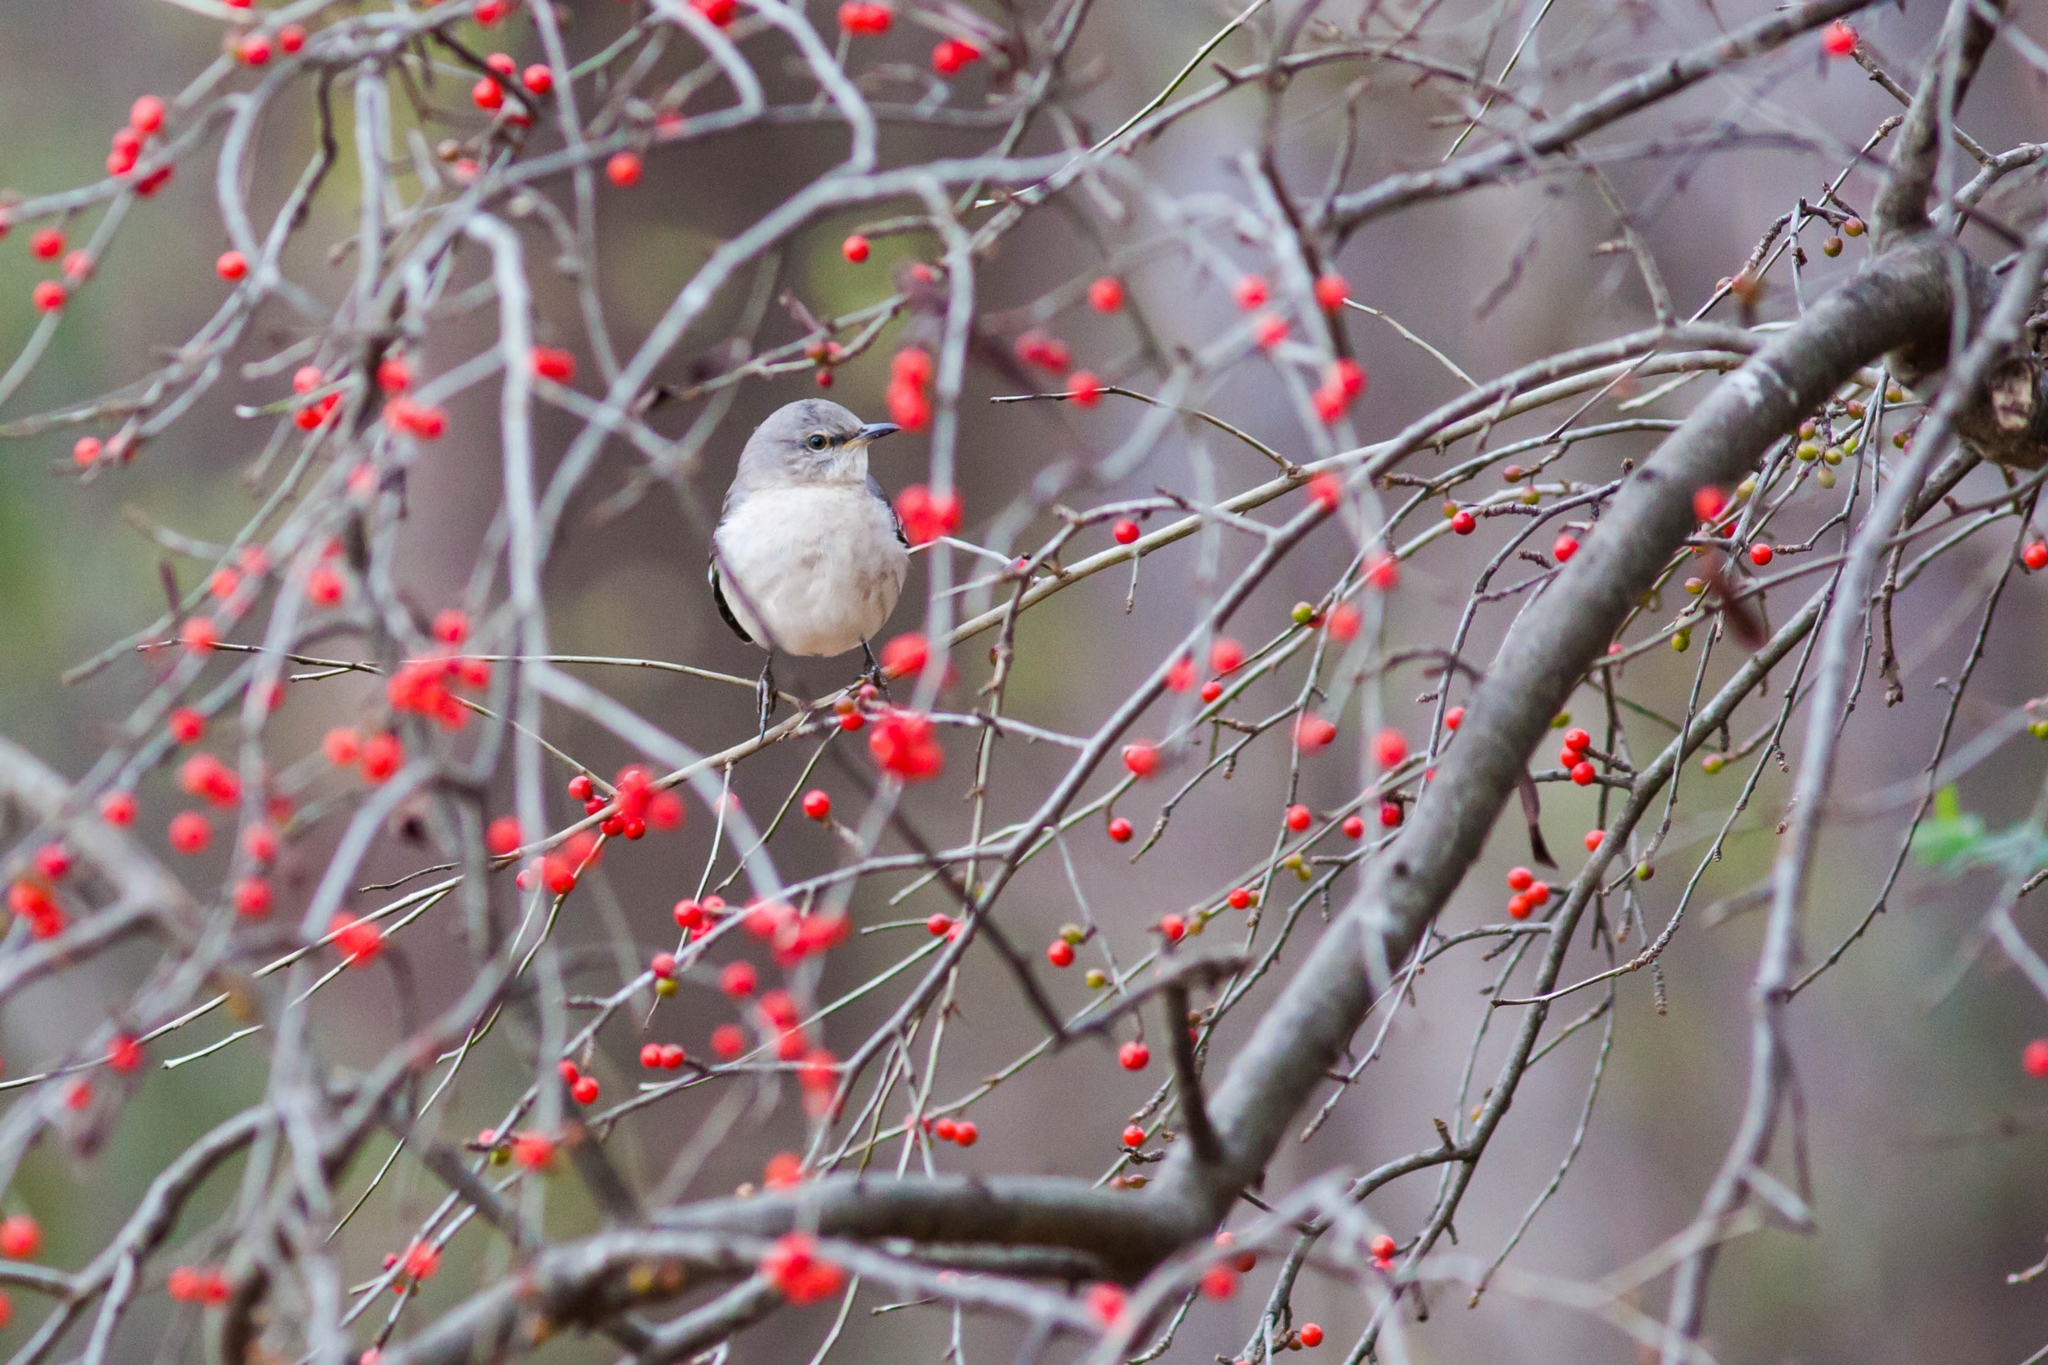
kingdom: Animalia
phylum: Chordata
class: Aves
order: Passeriformes
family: Mimidae
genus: Mimus
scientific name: Mimus polyglottos
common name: Northern mockingbird
